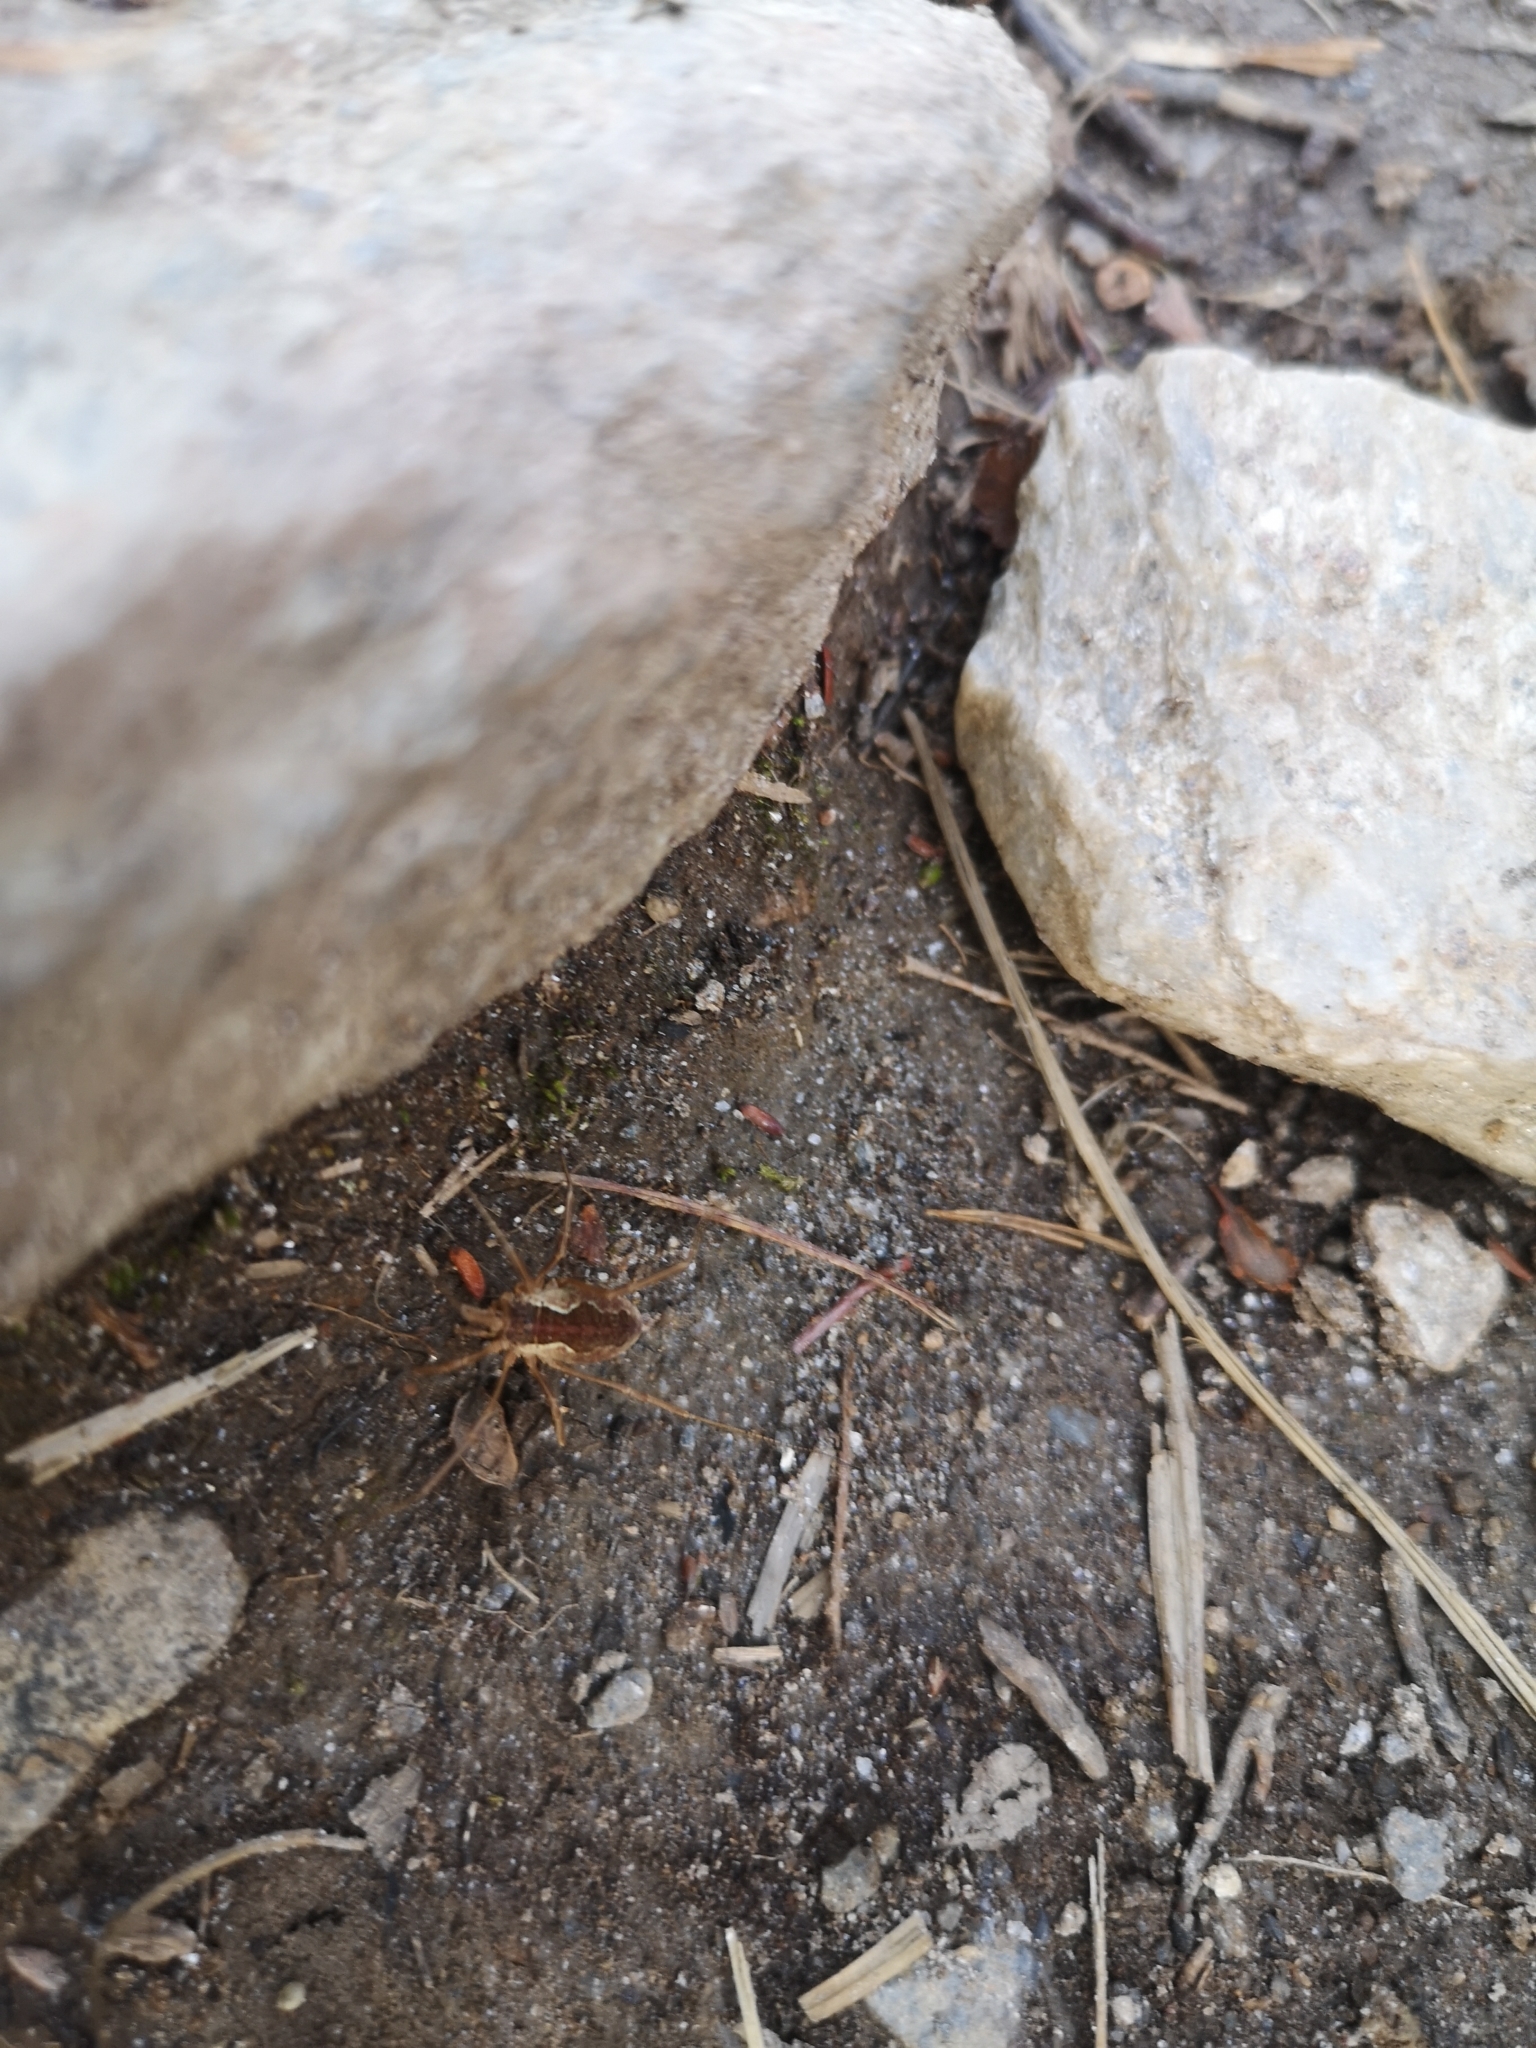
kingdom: Animalia
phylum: Arthropoda
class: Arachnida
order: Opiliones
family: Phalangiidae
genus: Mitopus
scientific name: Mitopus morio
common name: Saddleback harvestman
